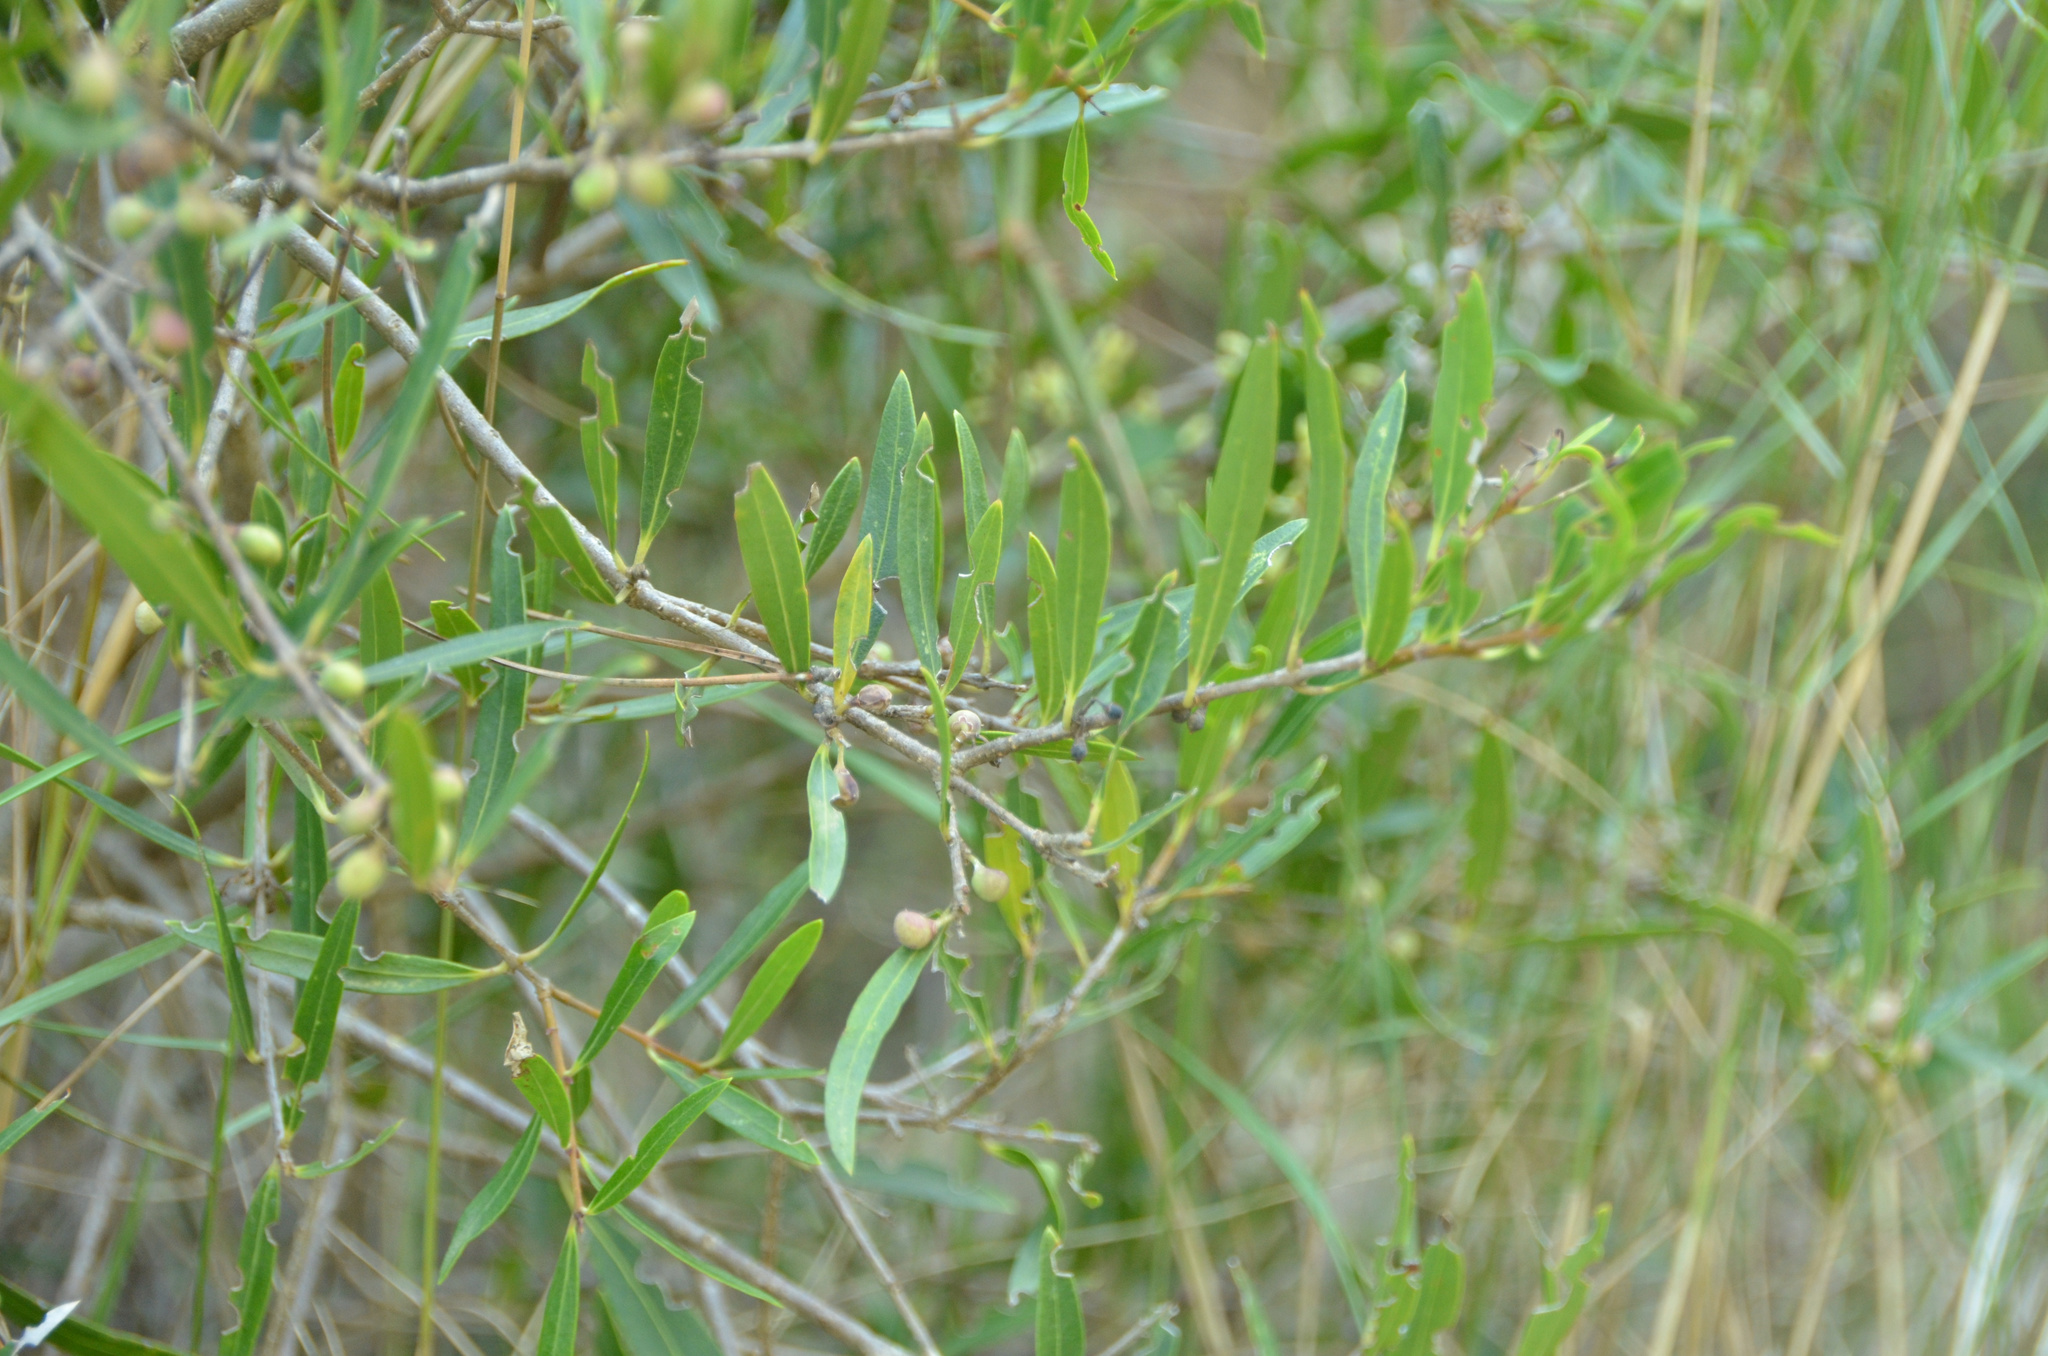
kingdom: Plantae
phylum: Tracheophyta
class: Magnoliopsida
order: Lamiales
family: Oleaceae
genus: Phillyrea
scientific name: Phillyrea angustifolia
